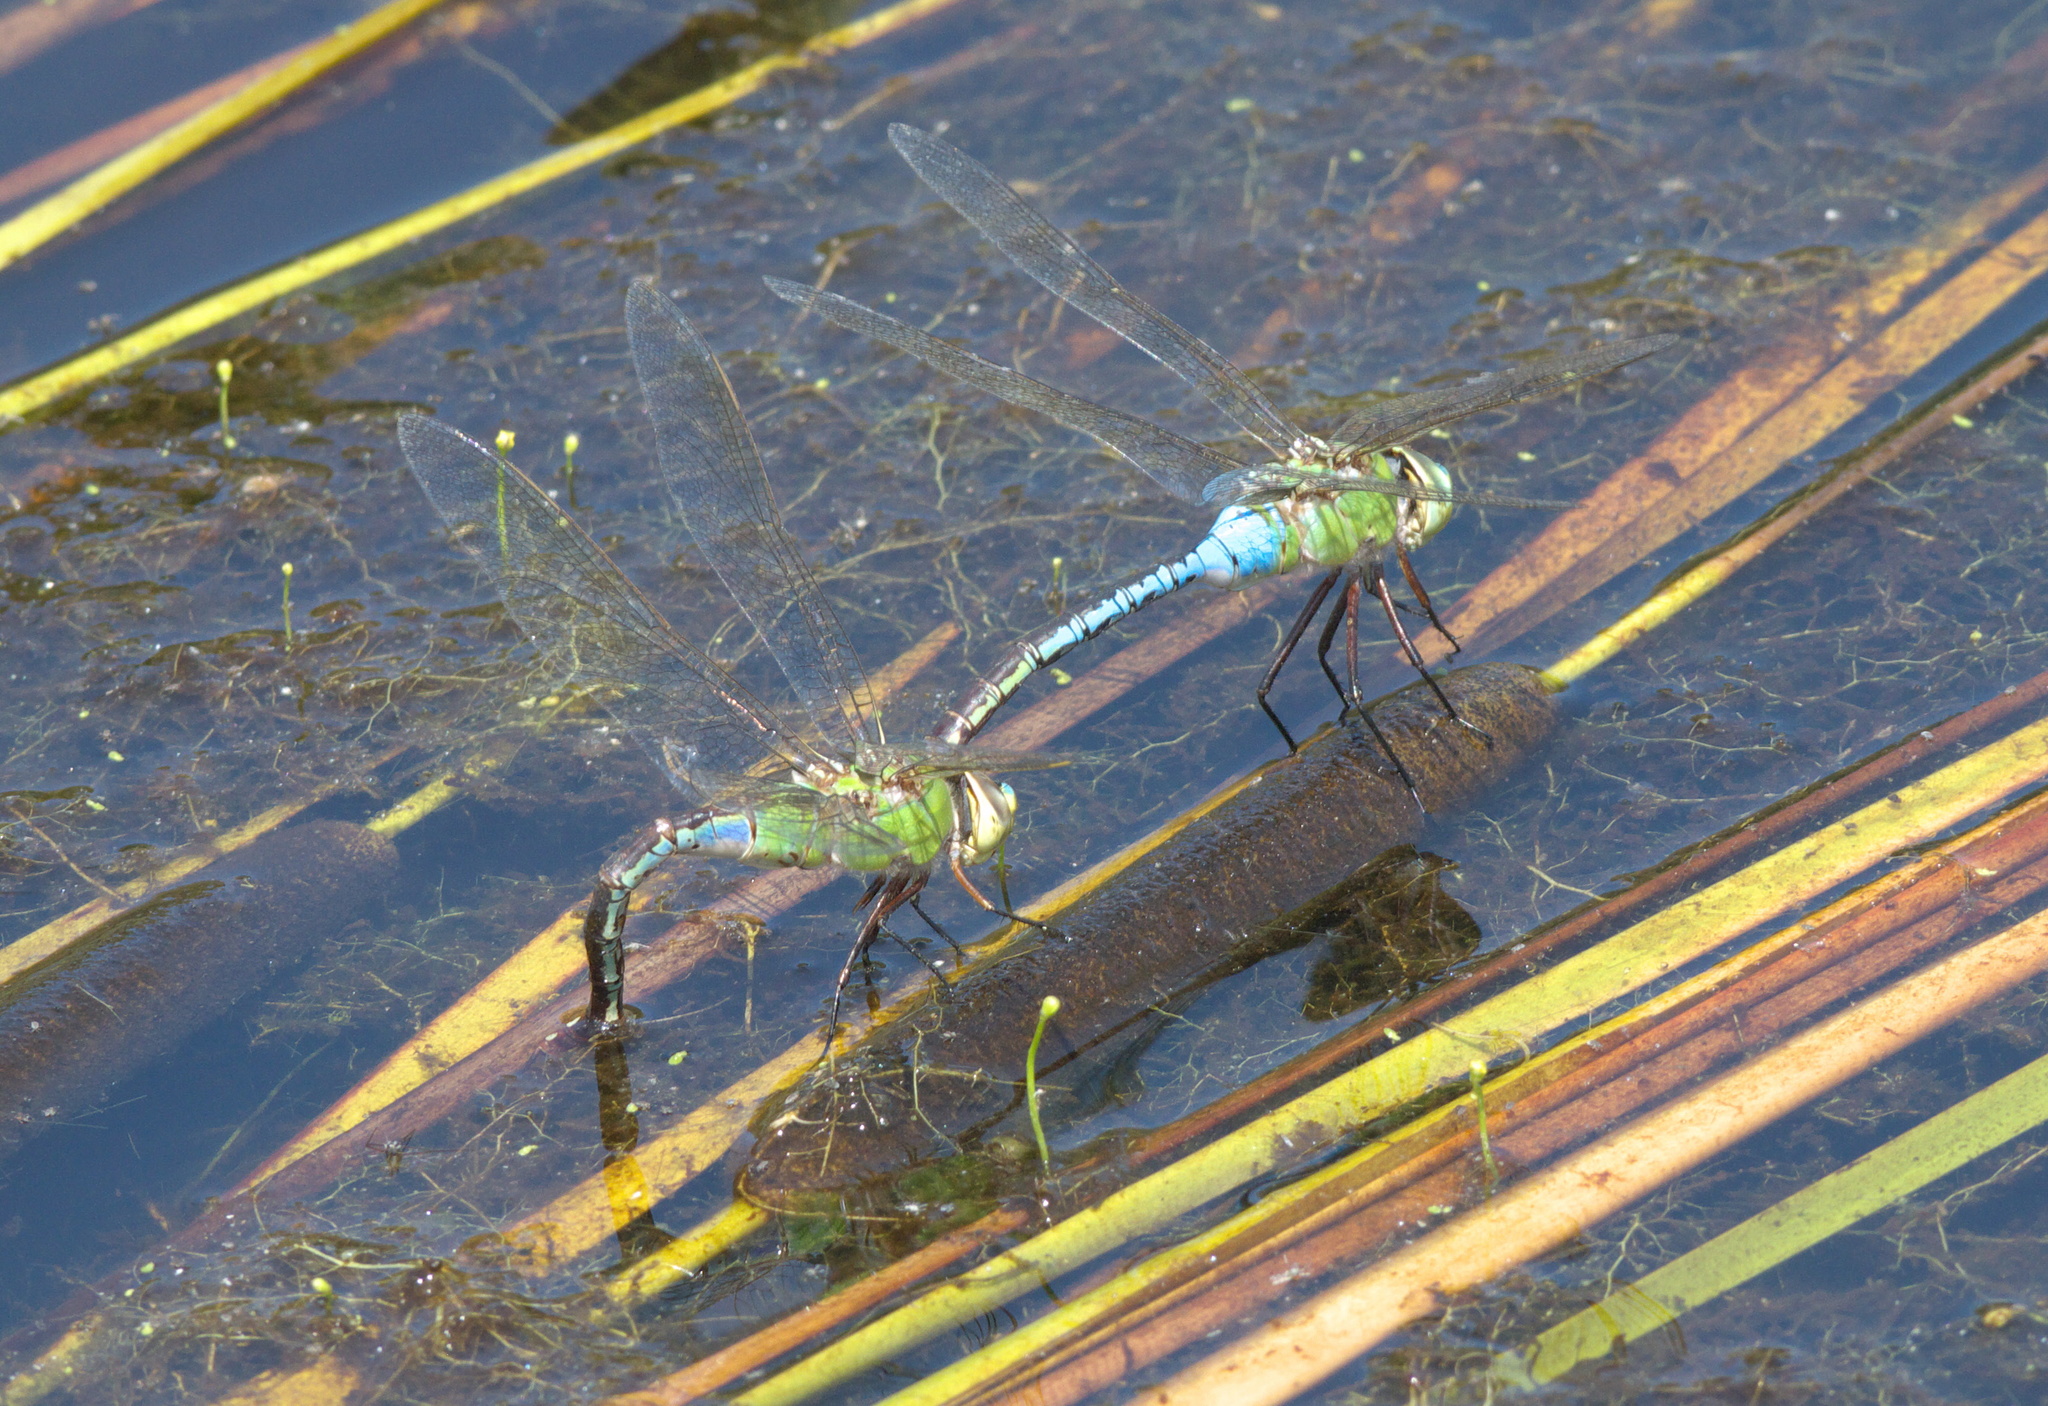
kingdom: Animalia
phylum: Arthropoda
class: Insecta
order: Odonata
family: Aeshnidae
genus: Anax
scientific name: Anax junius
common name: Common green darner
